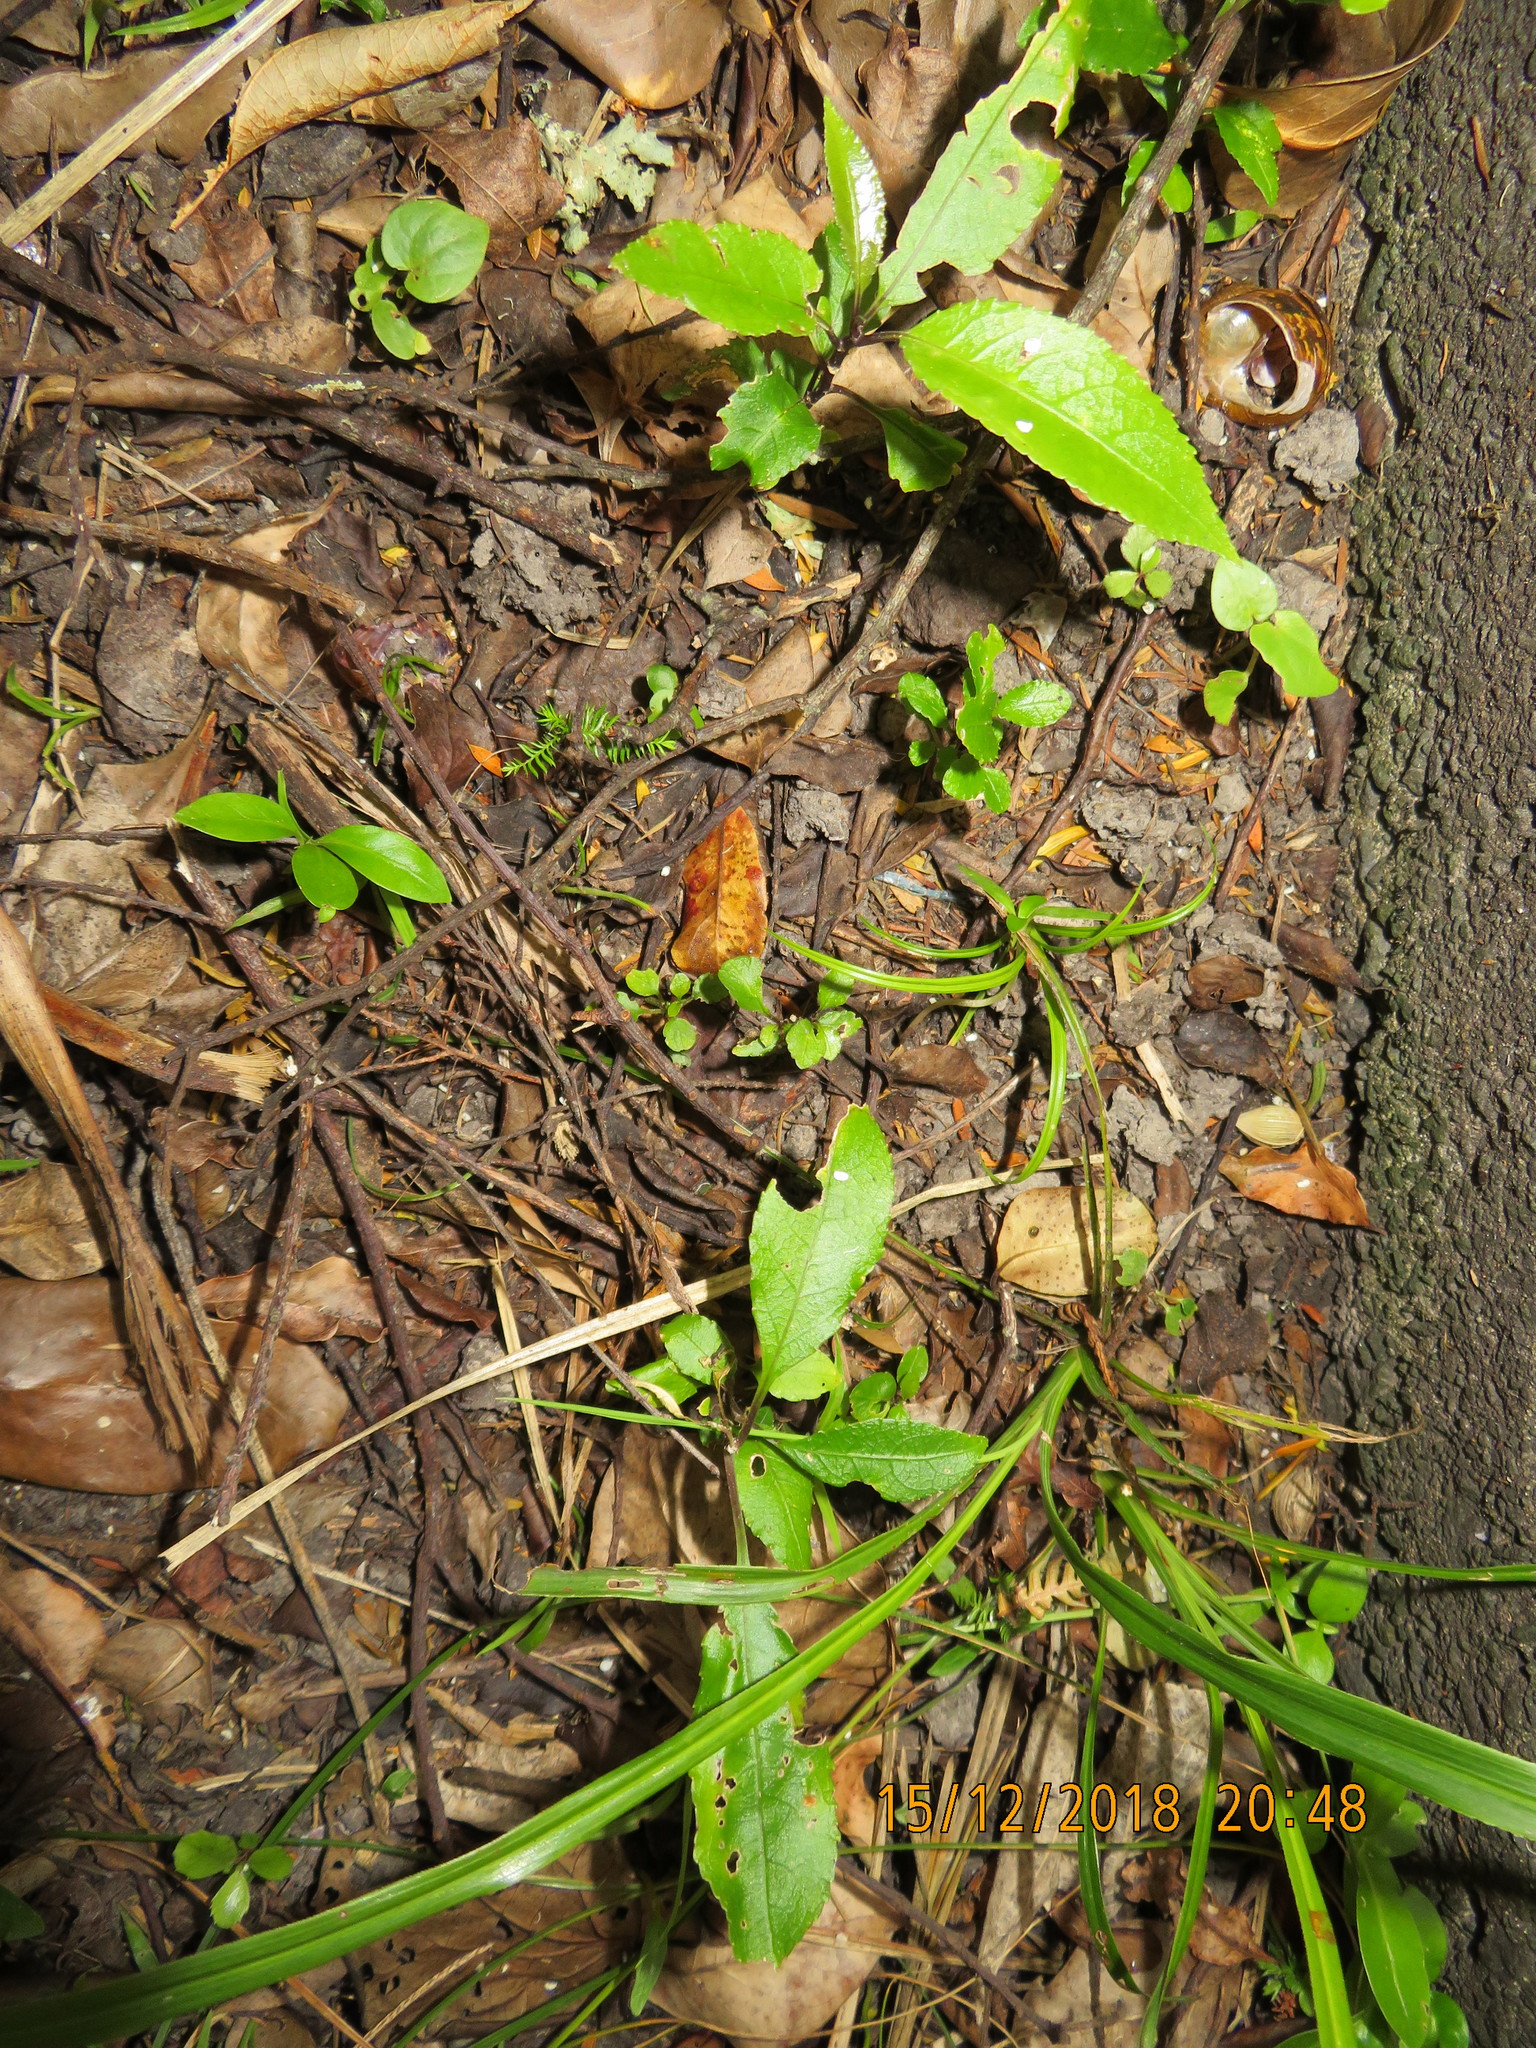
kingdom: Plantae
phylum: Tracheophyta
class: Magnoliopsida
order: Malpighiales
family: Violaceae
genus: Melicytus
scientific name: Melicytus ramiflorus
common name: Mahoe
